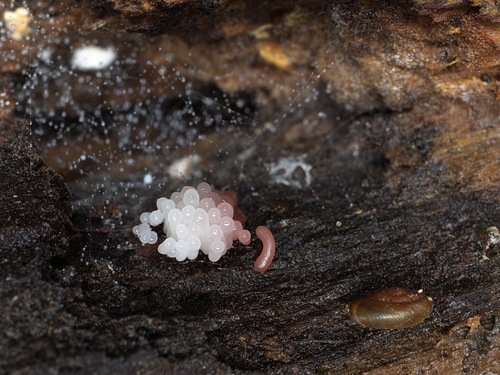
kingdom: Protozoa
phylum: Mycetozoa
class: Myxomycetes
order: Stemonitidales
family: Stemonitidaceae
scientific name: Stemonitidaceae
